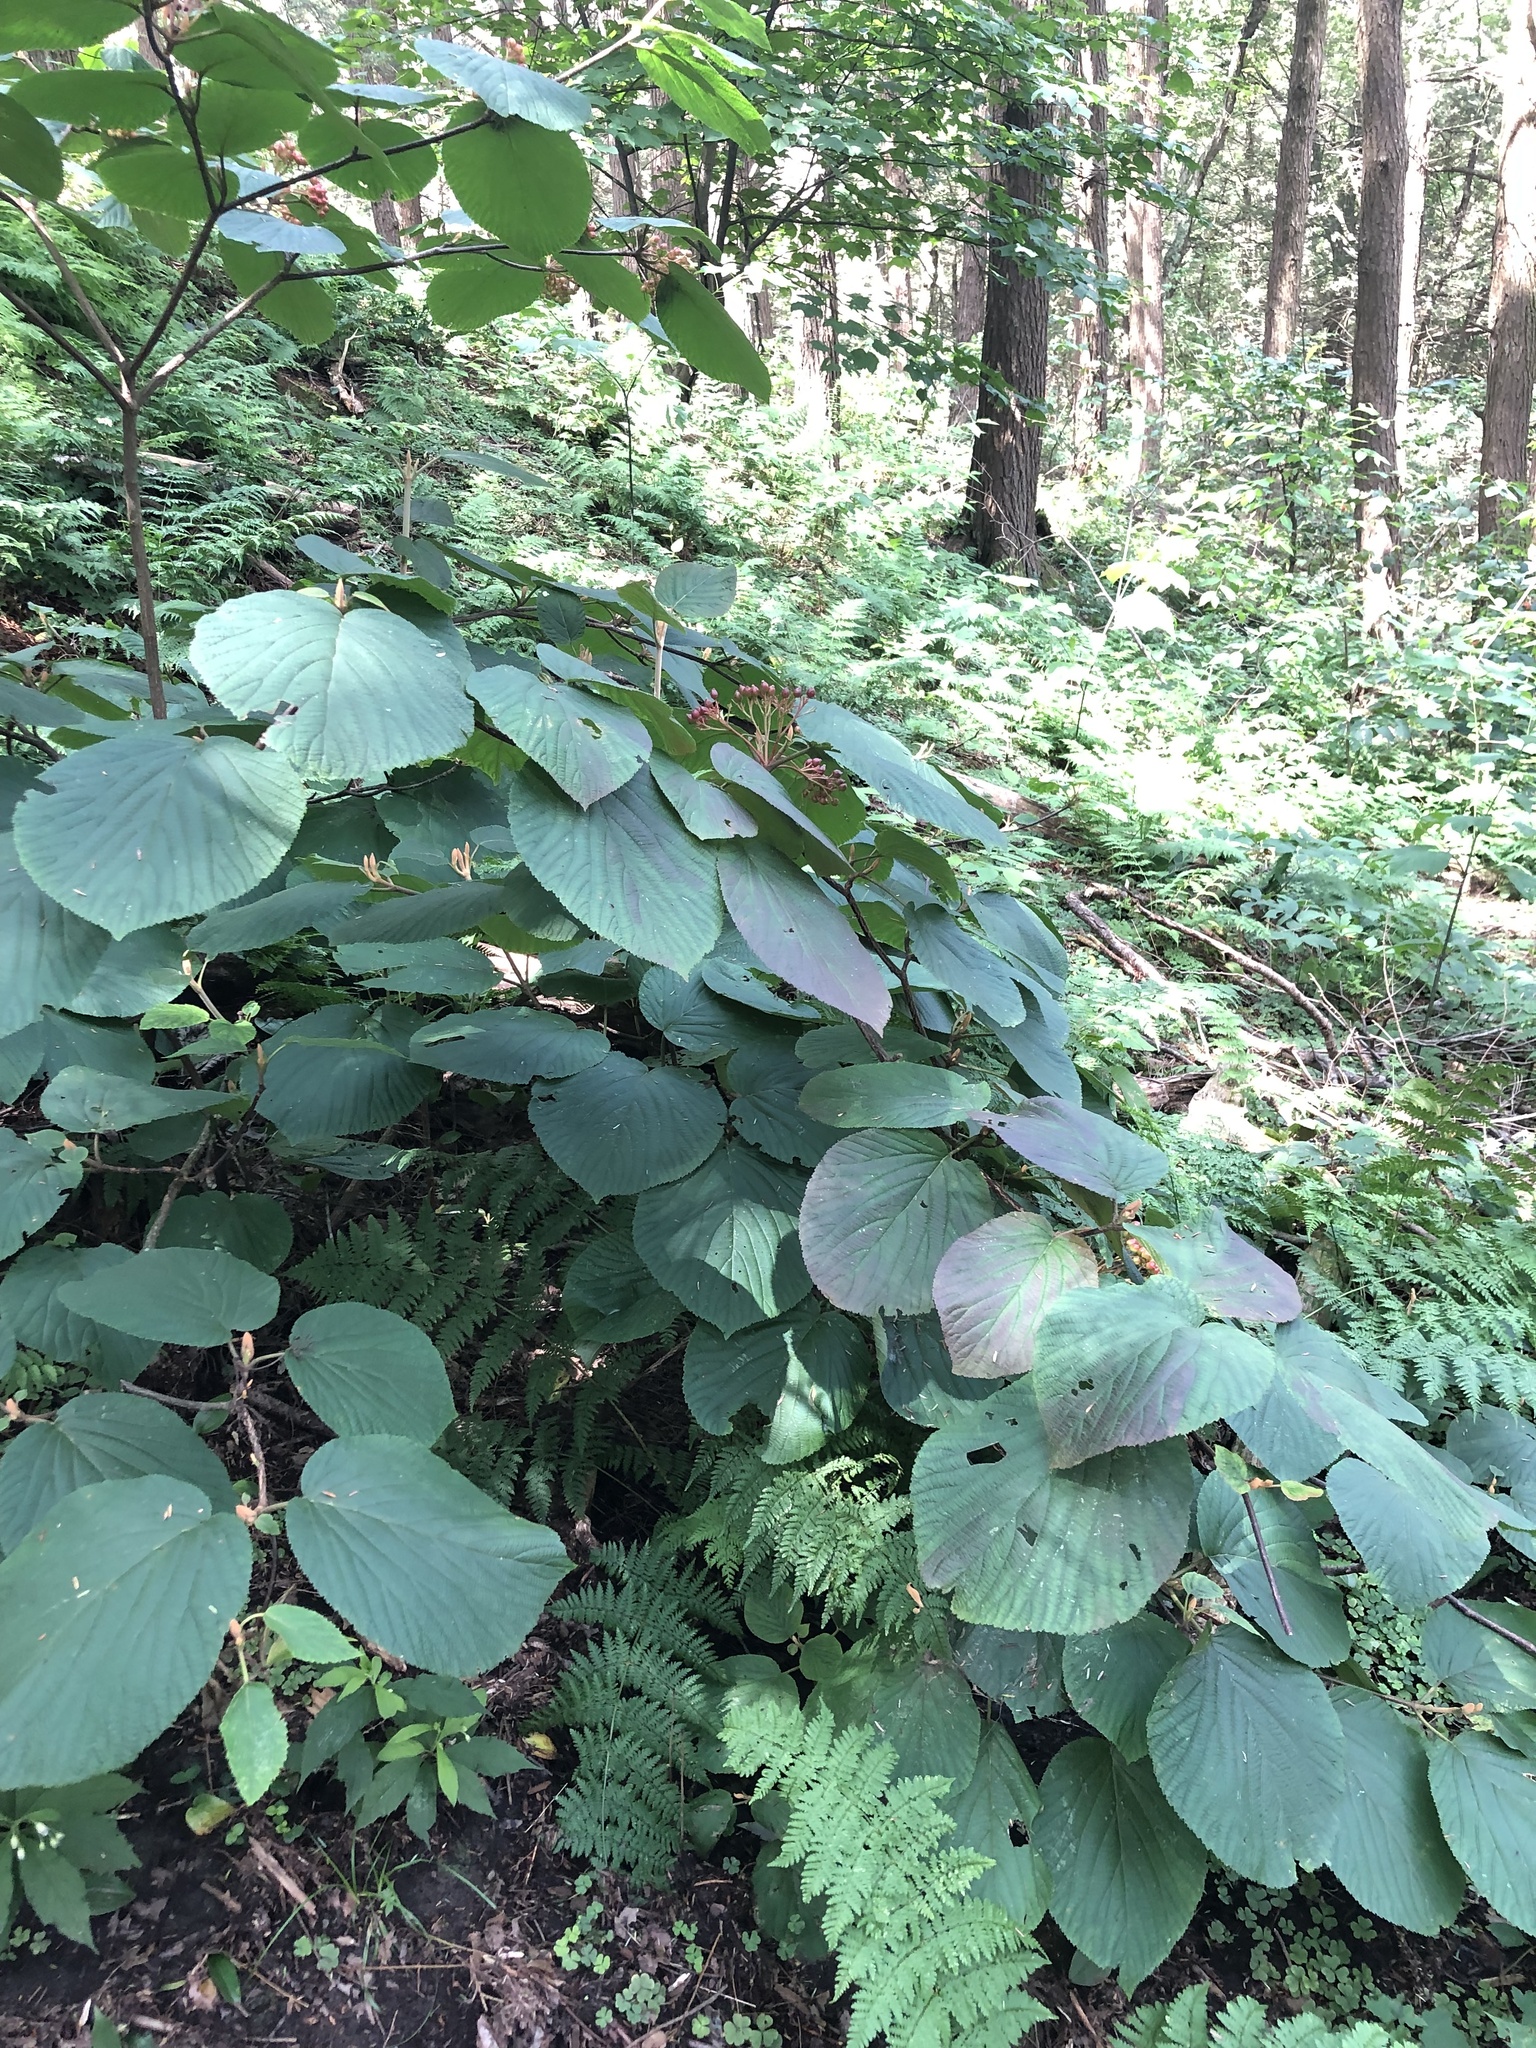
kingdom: Plantae
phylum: Tracheophyta
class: Magnoliopsida
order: Dipsacales
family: Viburnaceae
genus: Viburnum
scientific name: Viburnum lantanoides
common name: Hobblebush
